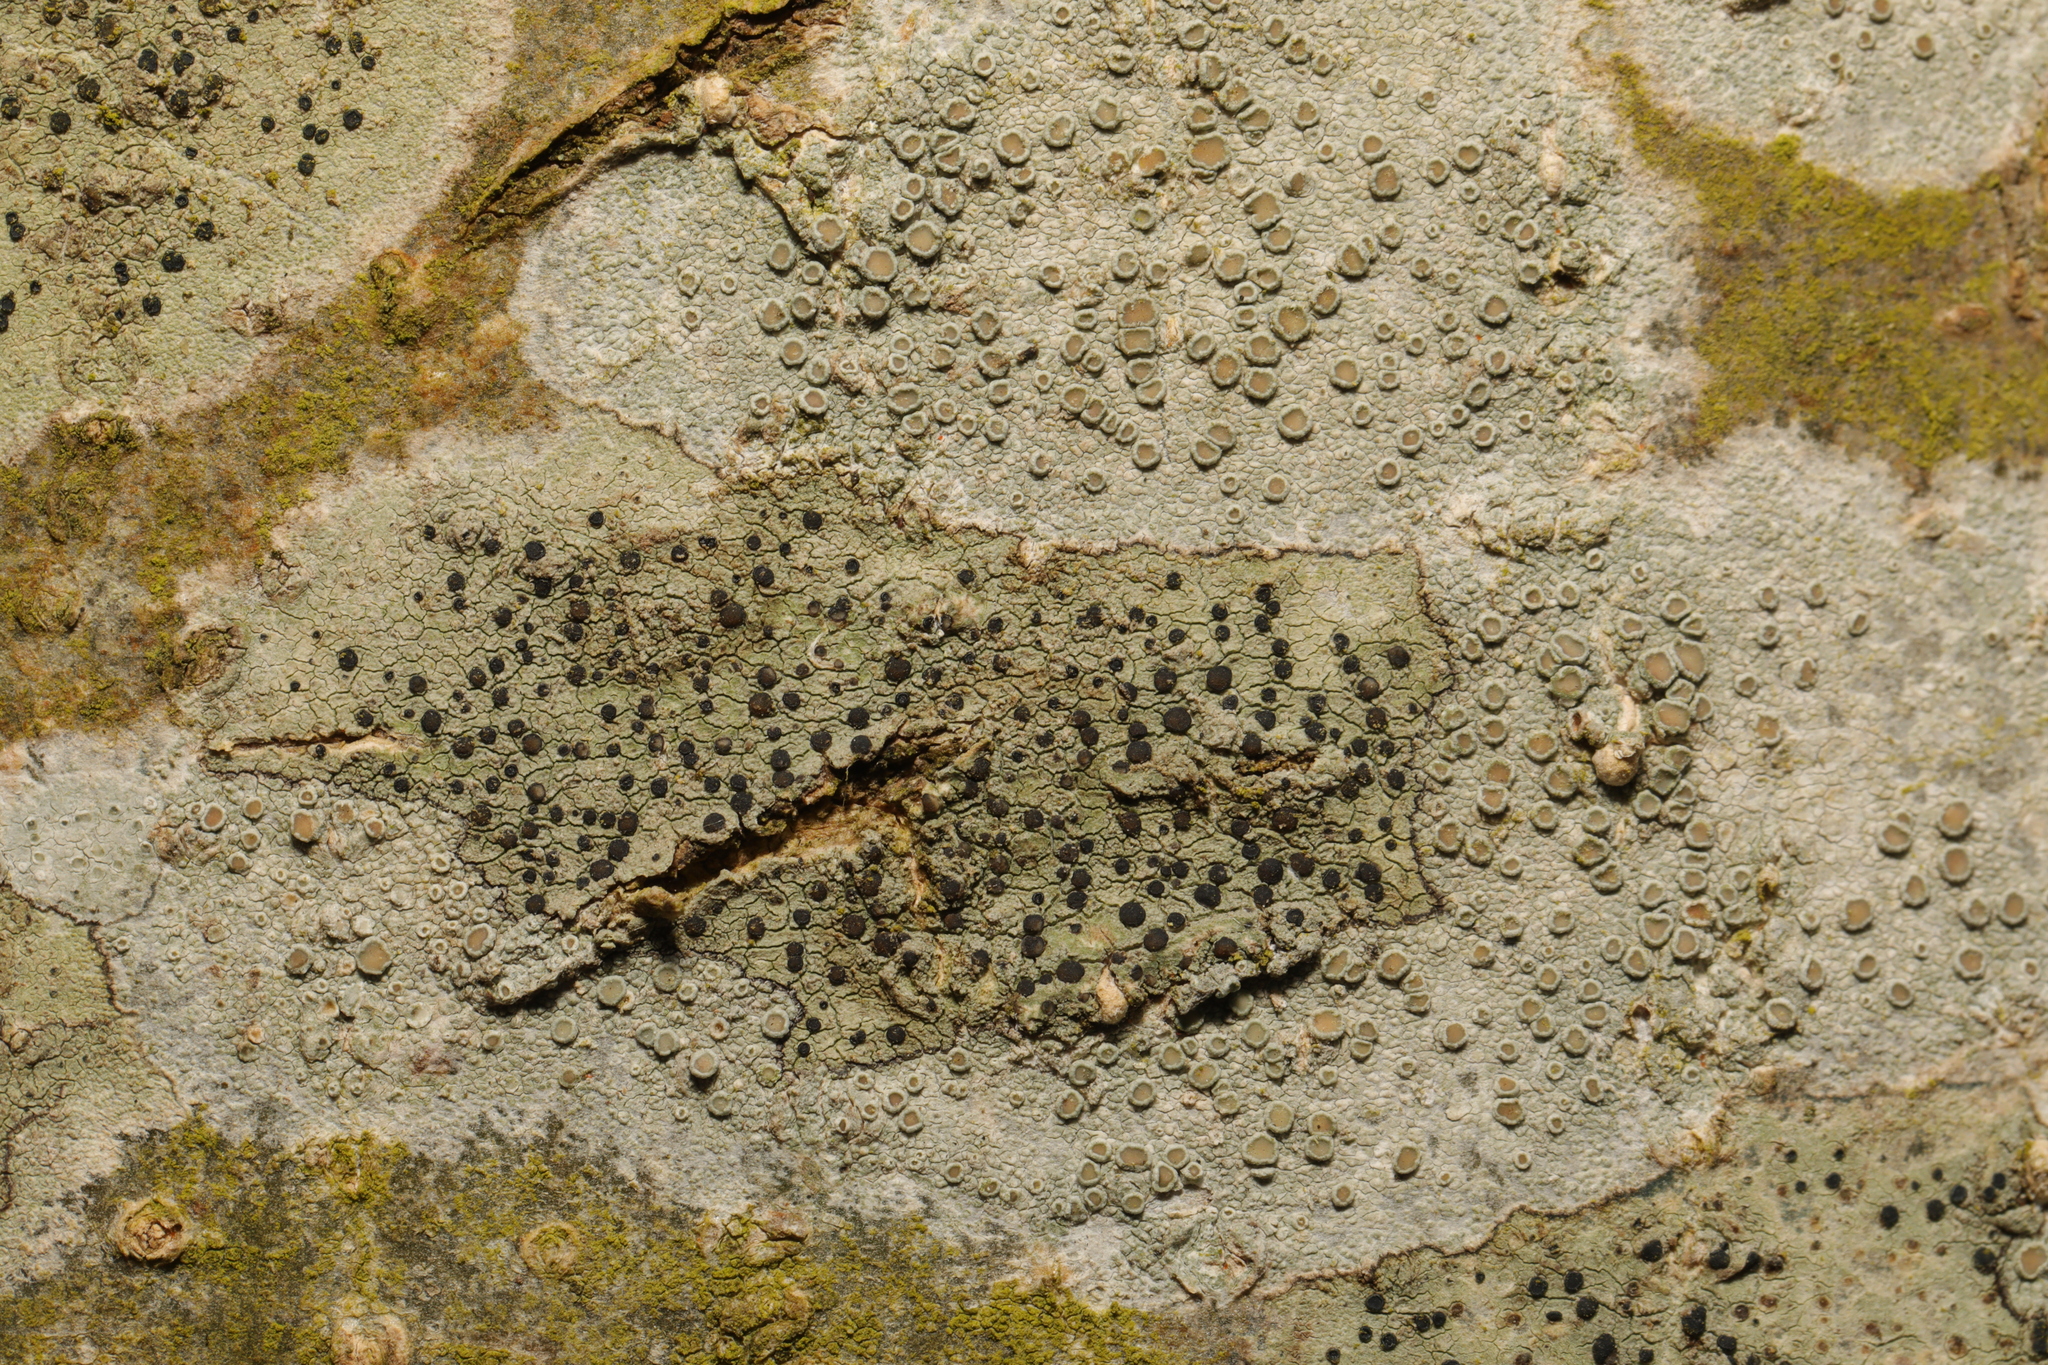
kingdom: Fungi
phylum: Ascomycota
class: Lecanoromycetes
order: Lecanorales
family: Lecanoraceae
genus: Lecidella
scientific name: Lecidella elaeochroma
